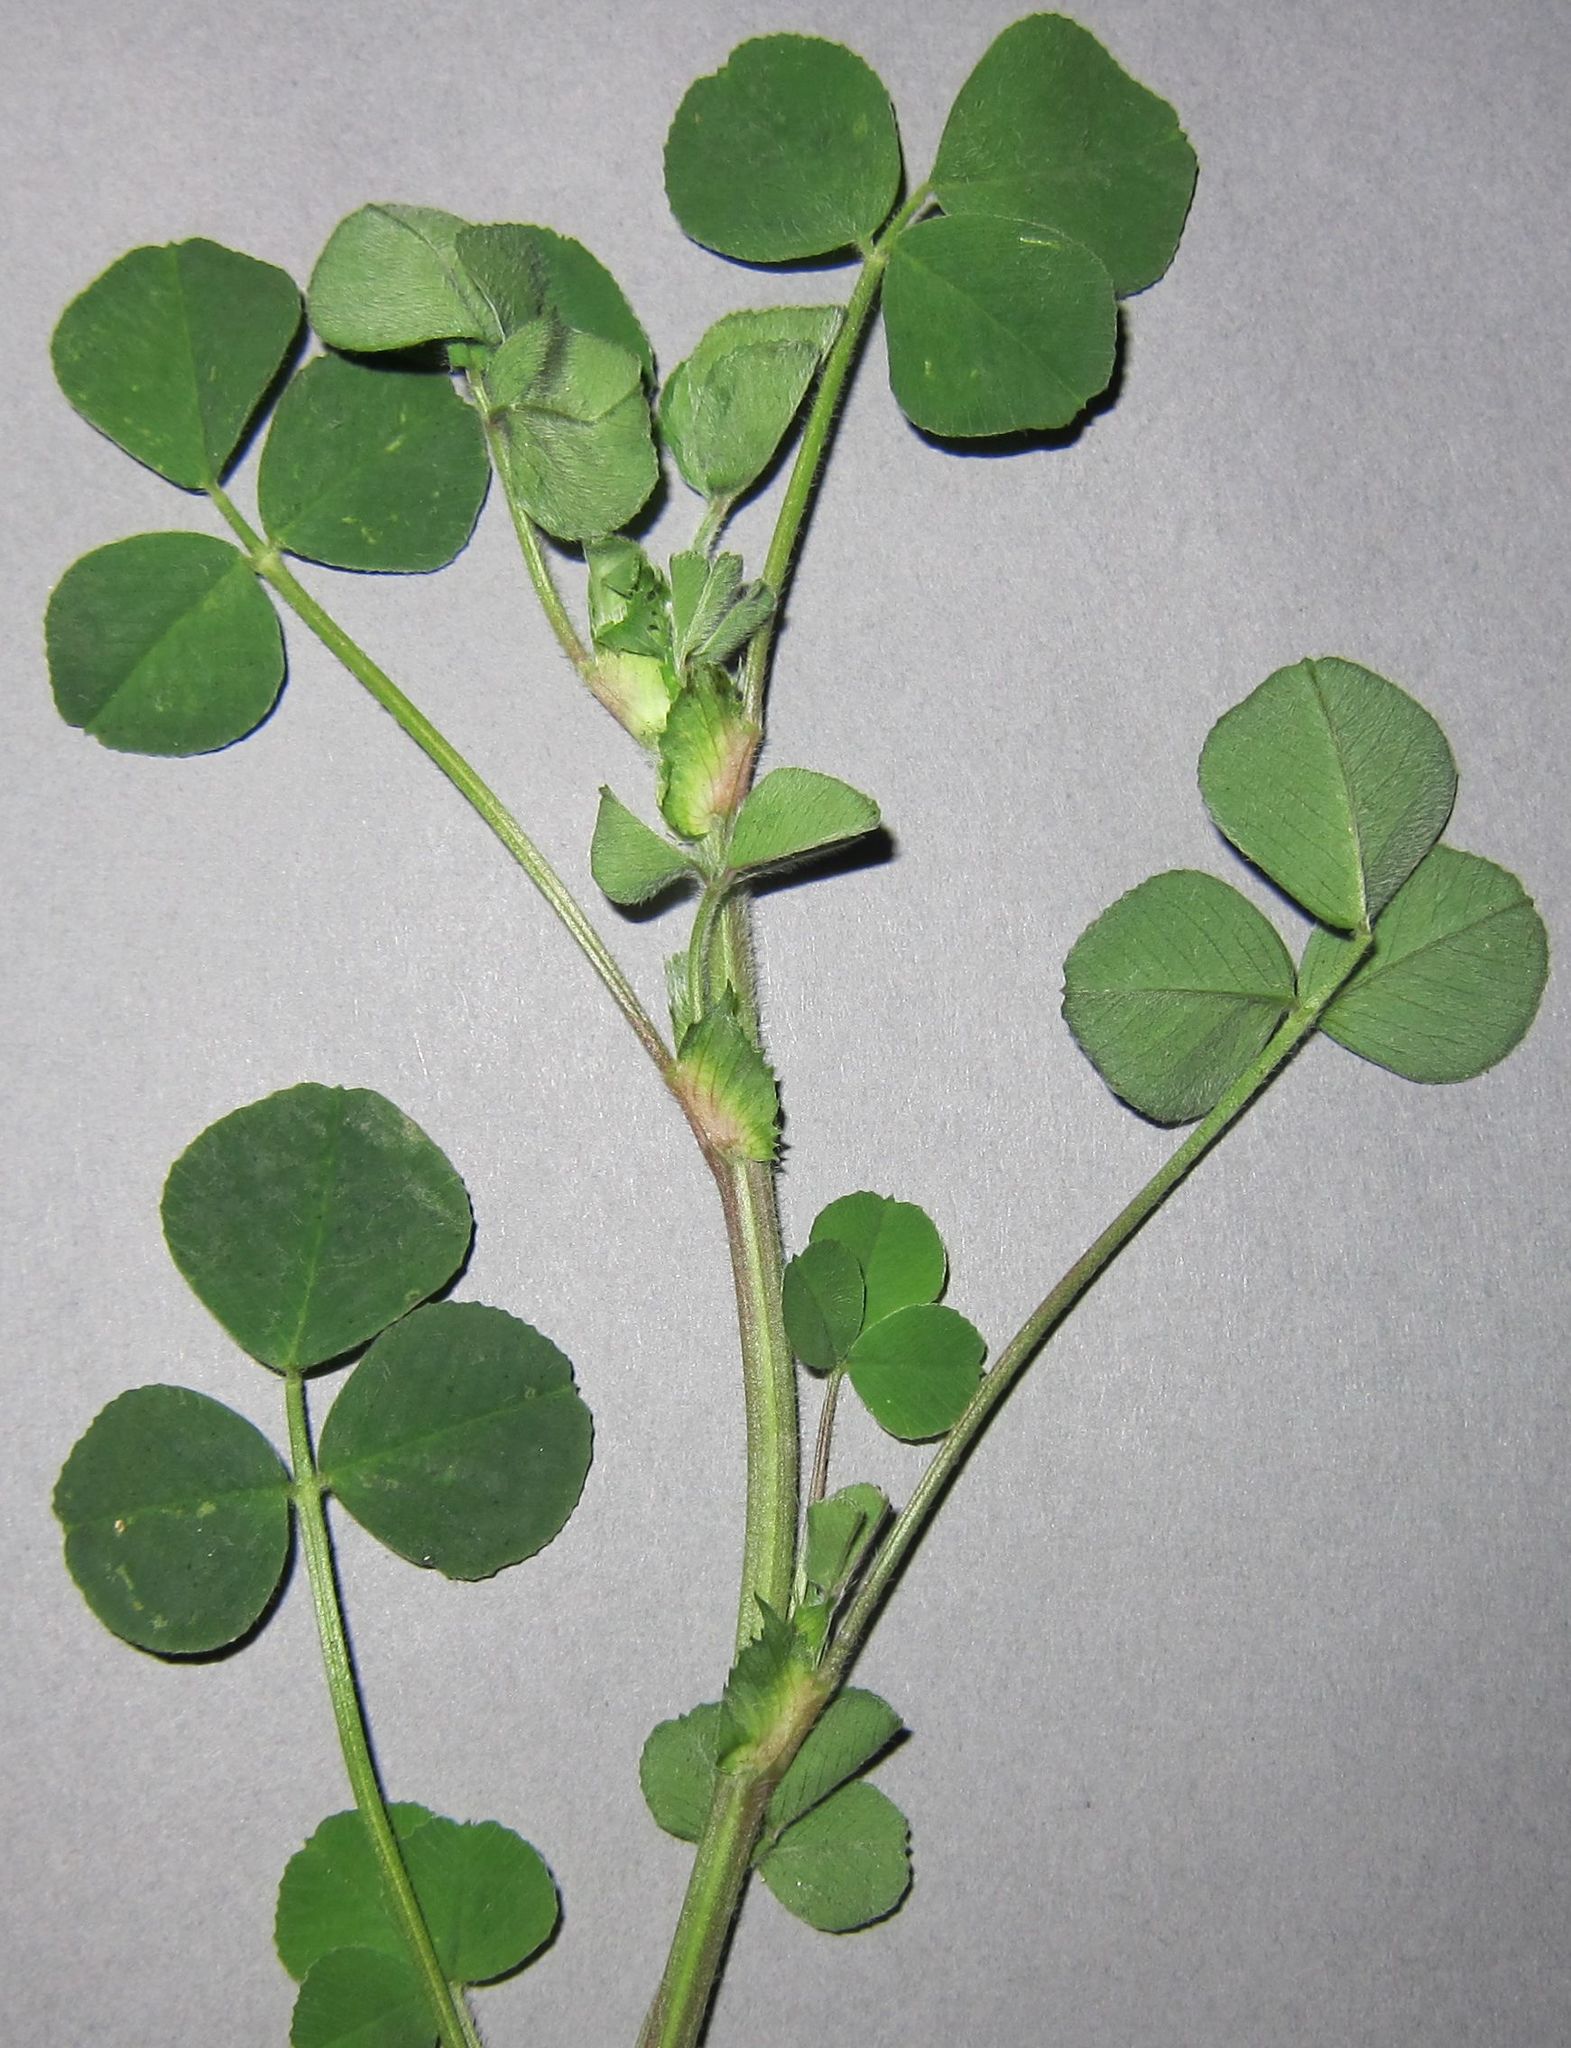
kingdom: Plantae
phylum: Tracheophyta
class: Magnoliopsida
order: Fabales
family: Fabaceae
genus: Medicago
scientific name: Medicago lupulina
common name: Black medick
